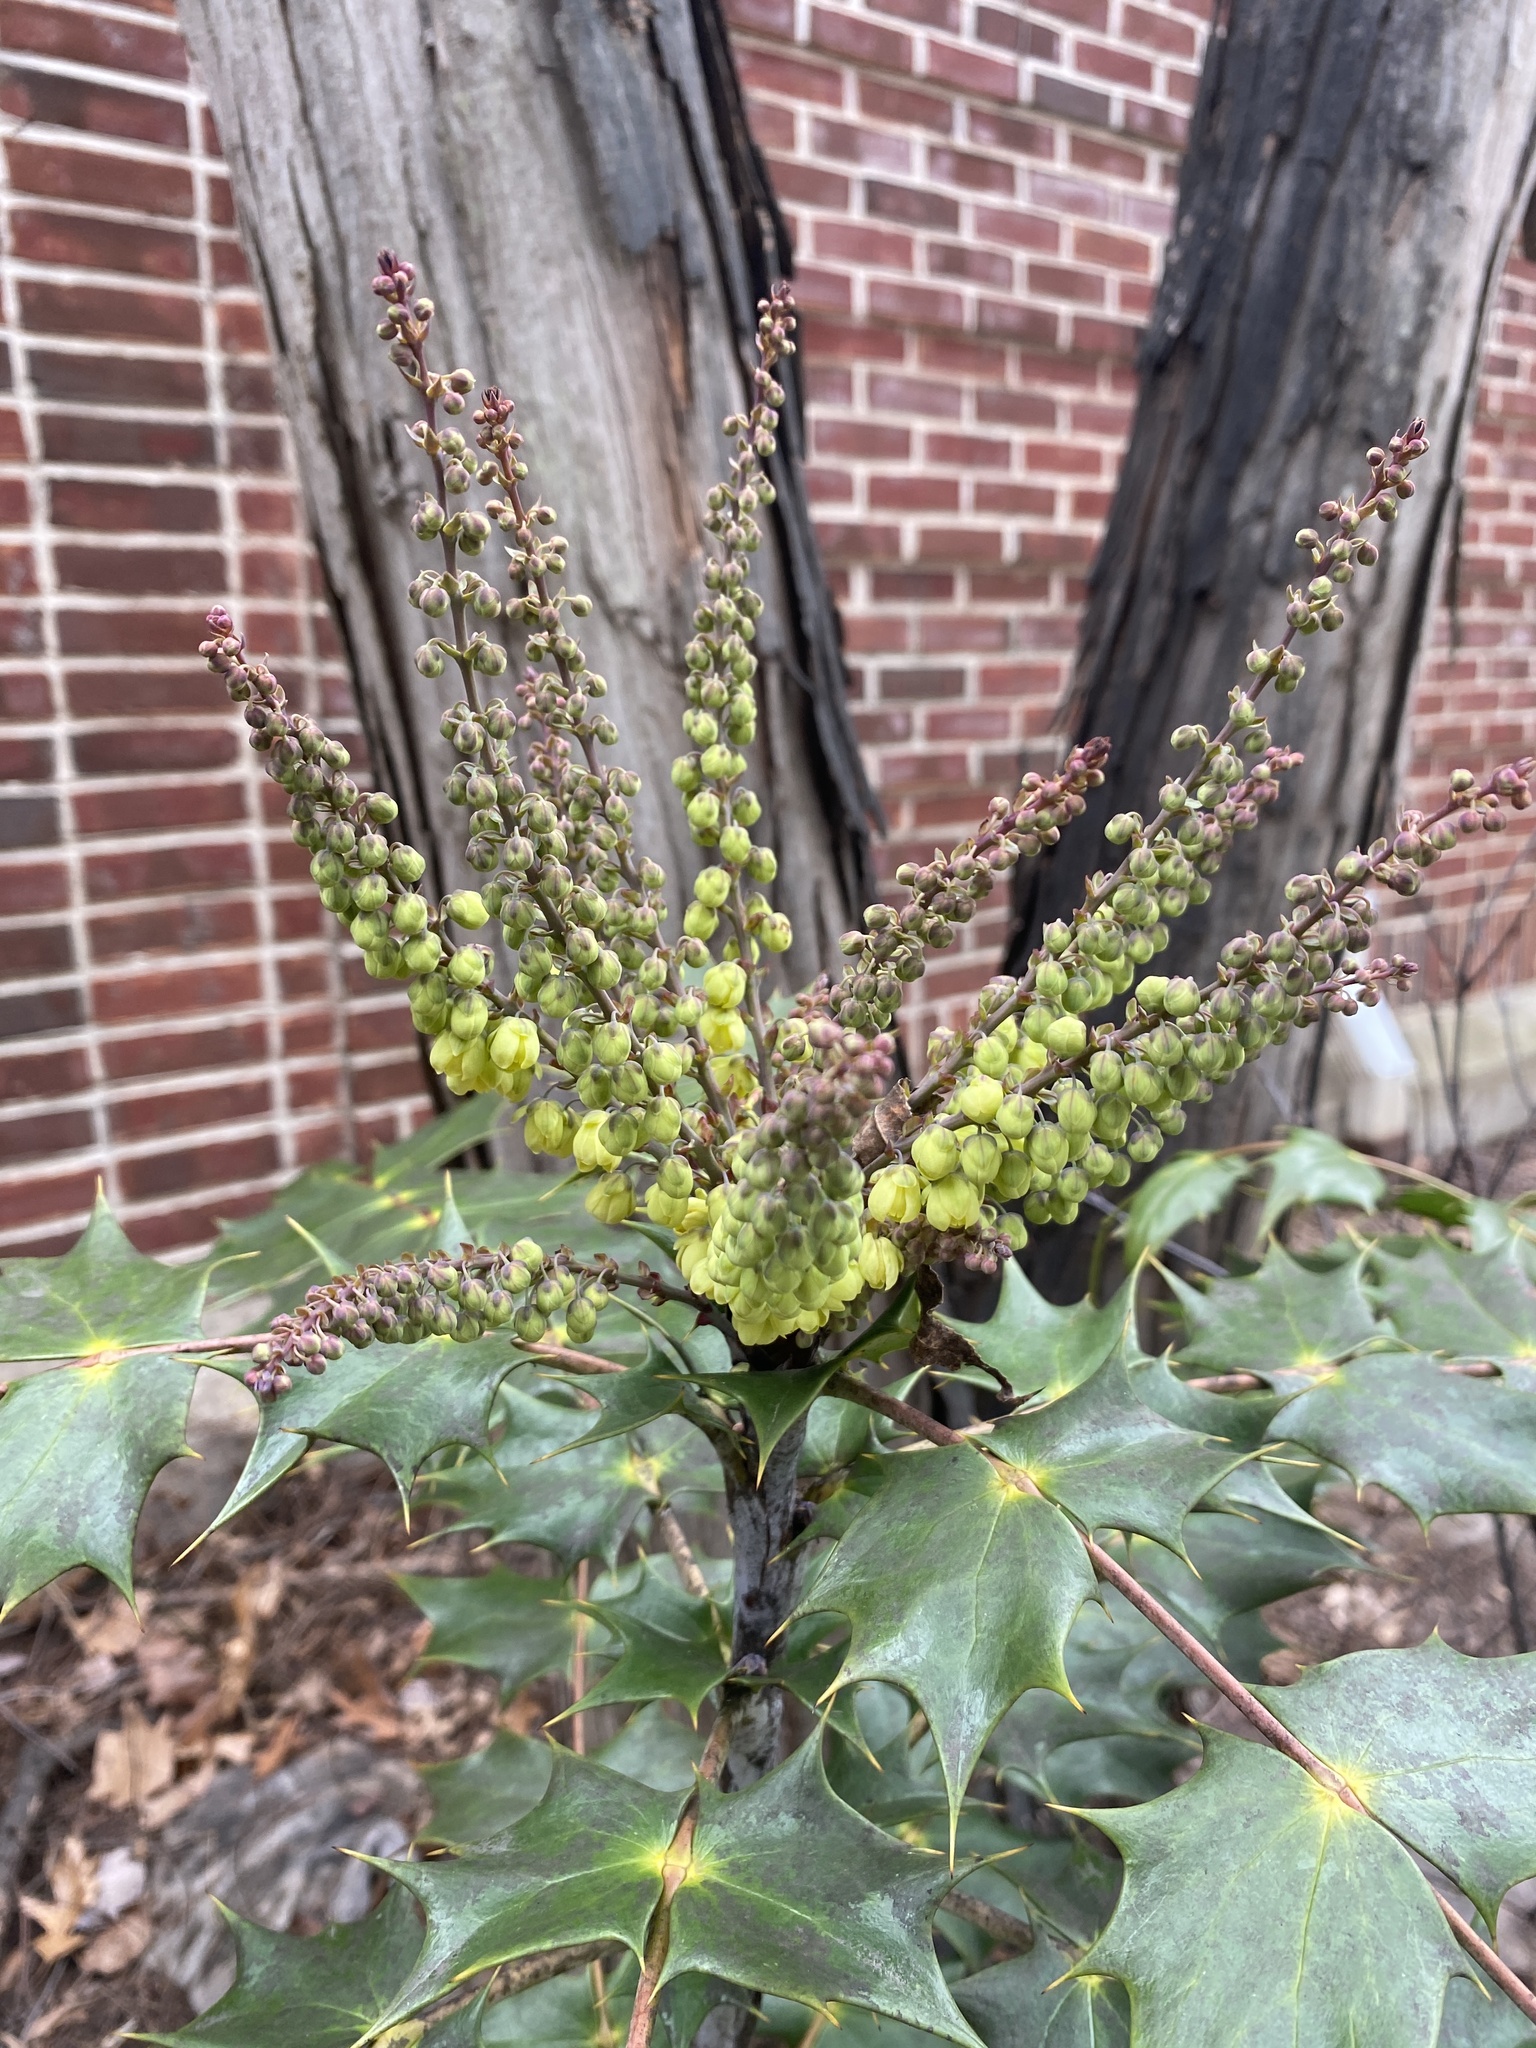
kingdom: Plantae
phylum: Tracheophyta
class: Magnoliopsida
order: Ranunculales
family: Berberidaceae
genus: Mahonia
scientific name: Mahonia bealei
